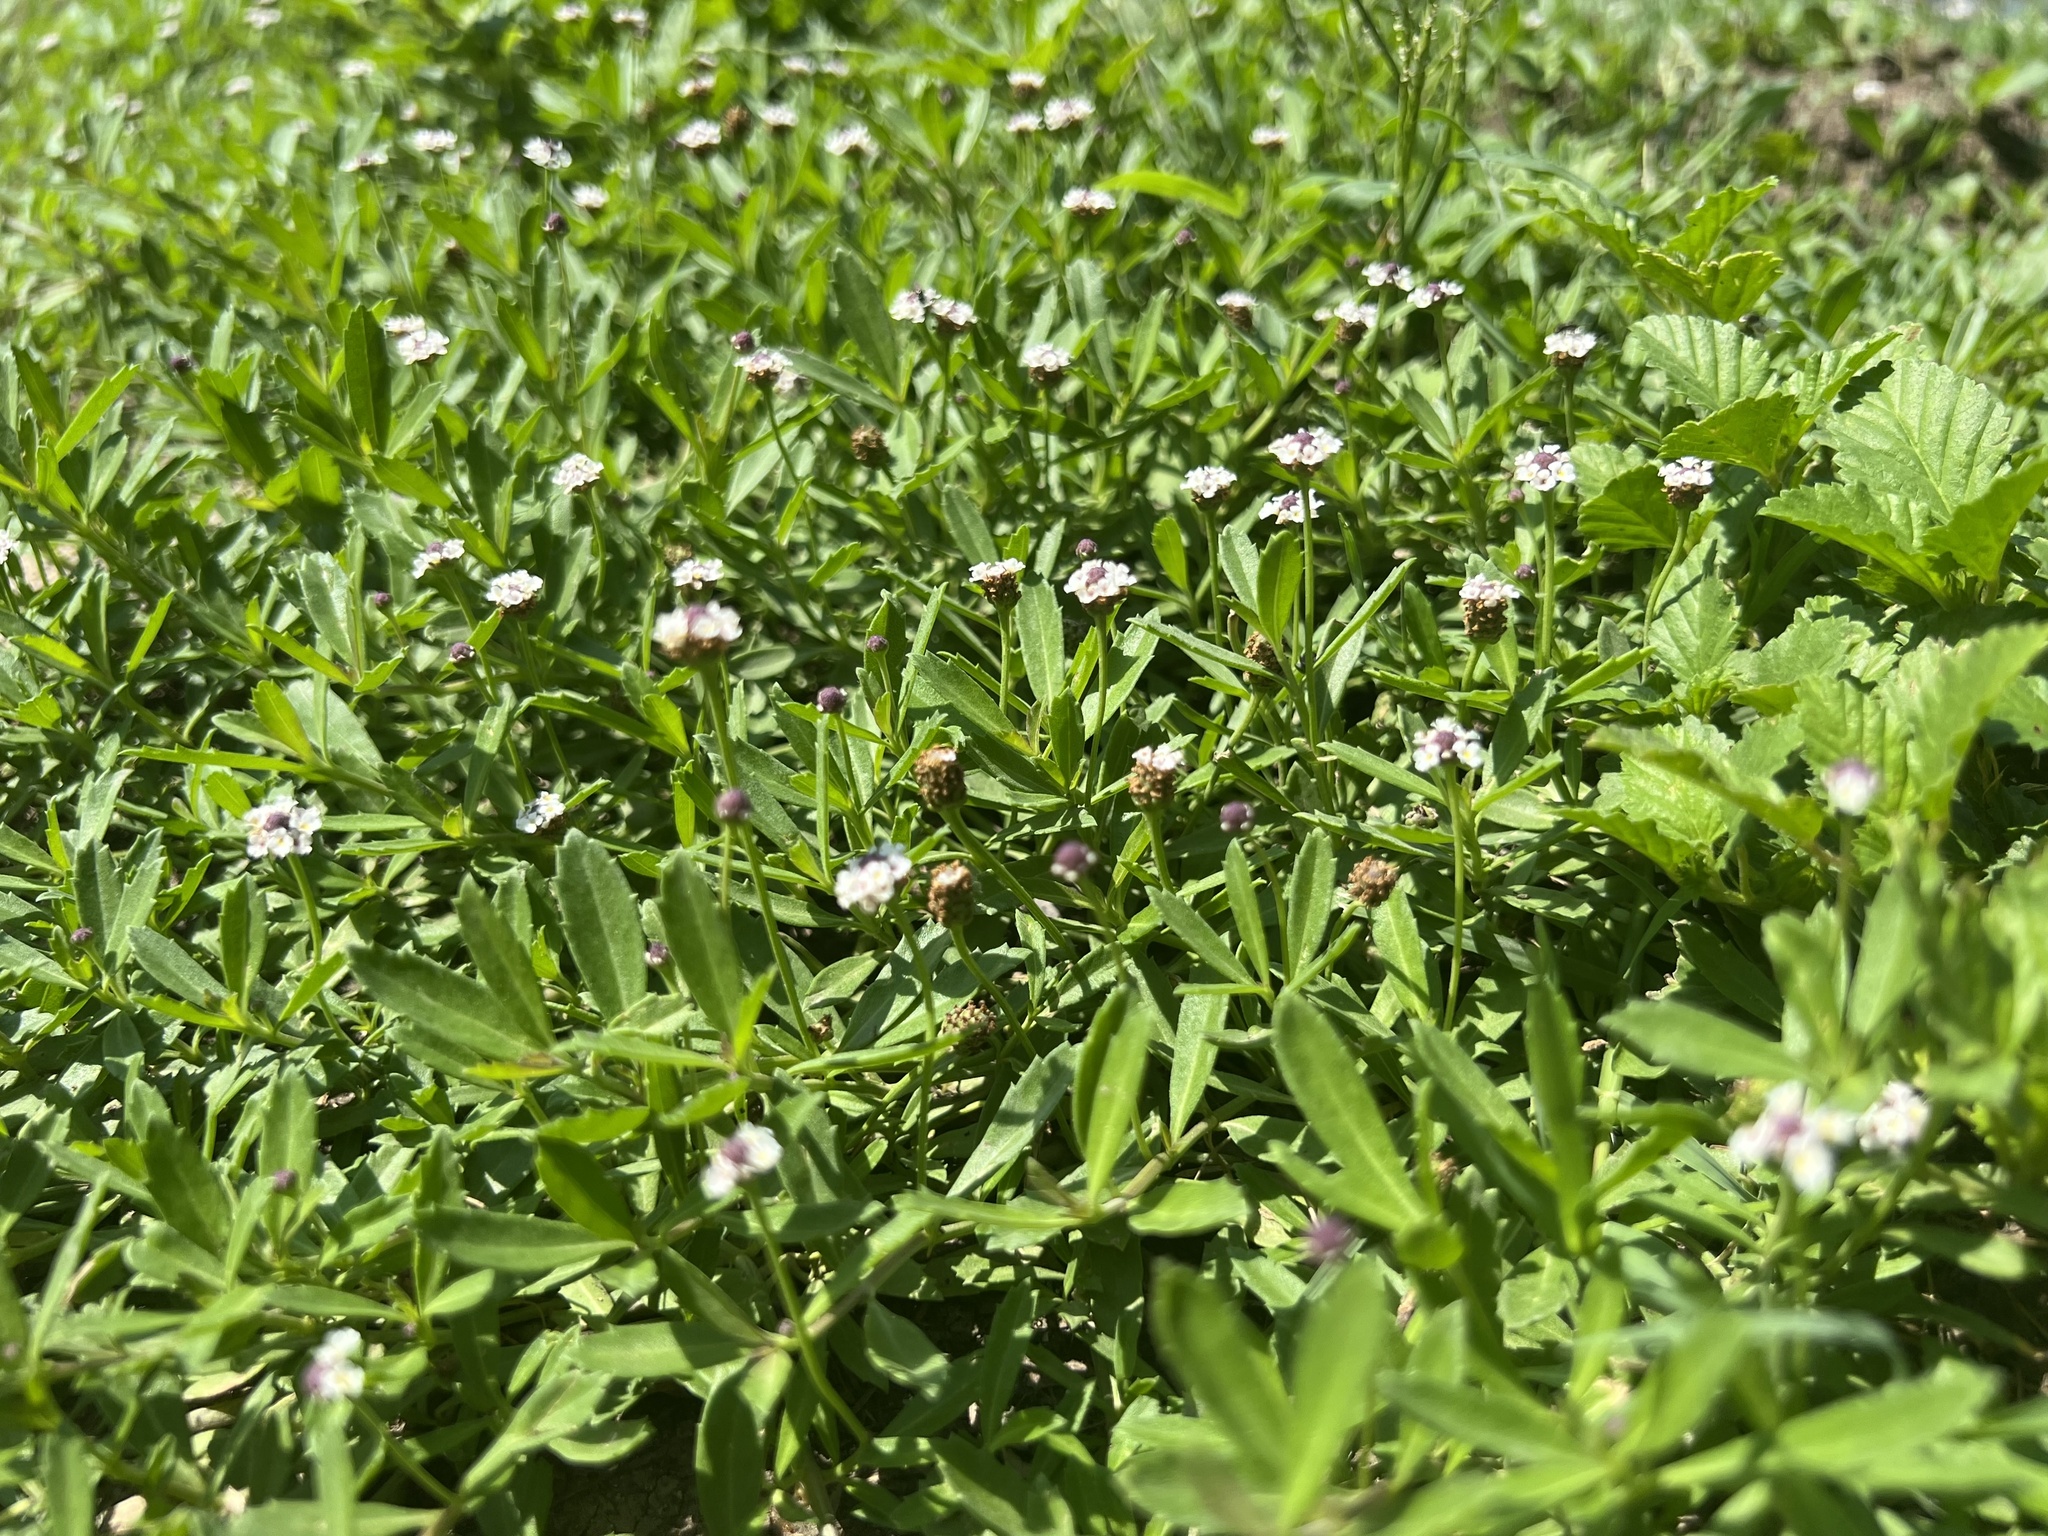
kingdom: Plantae
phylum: Tracheophyta
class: Magnoliopsida
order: Lamiales
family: Verbenaceae
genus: Phyla
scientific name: Phyla nodiflora
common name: Frogfruit
